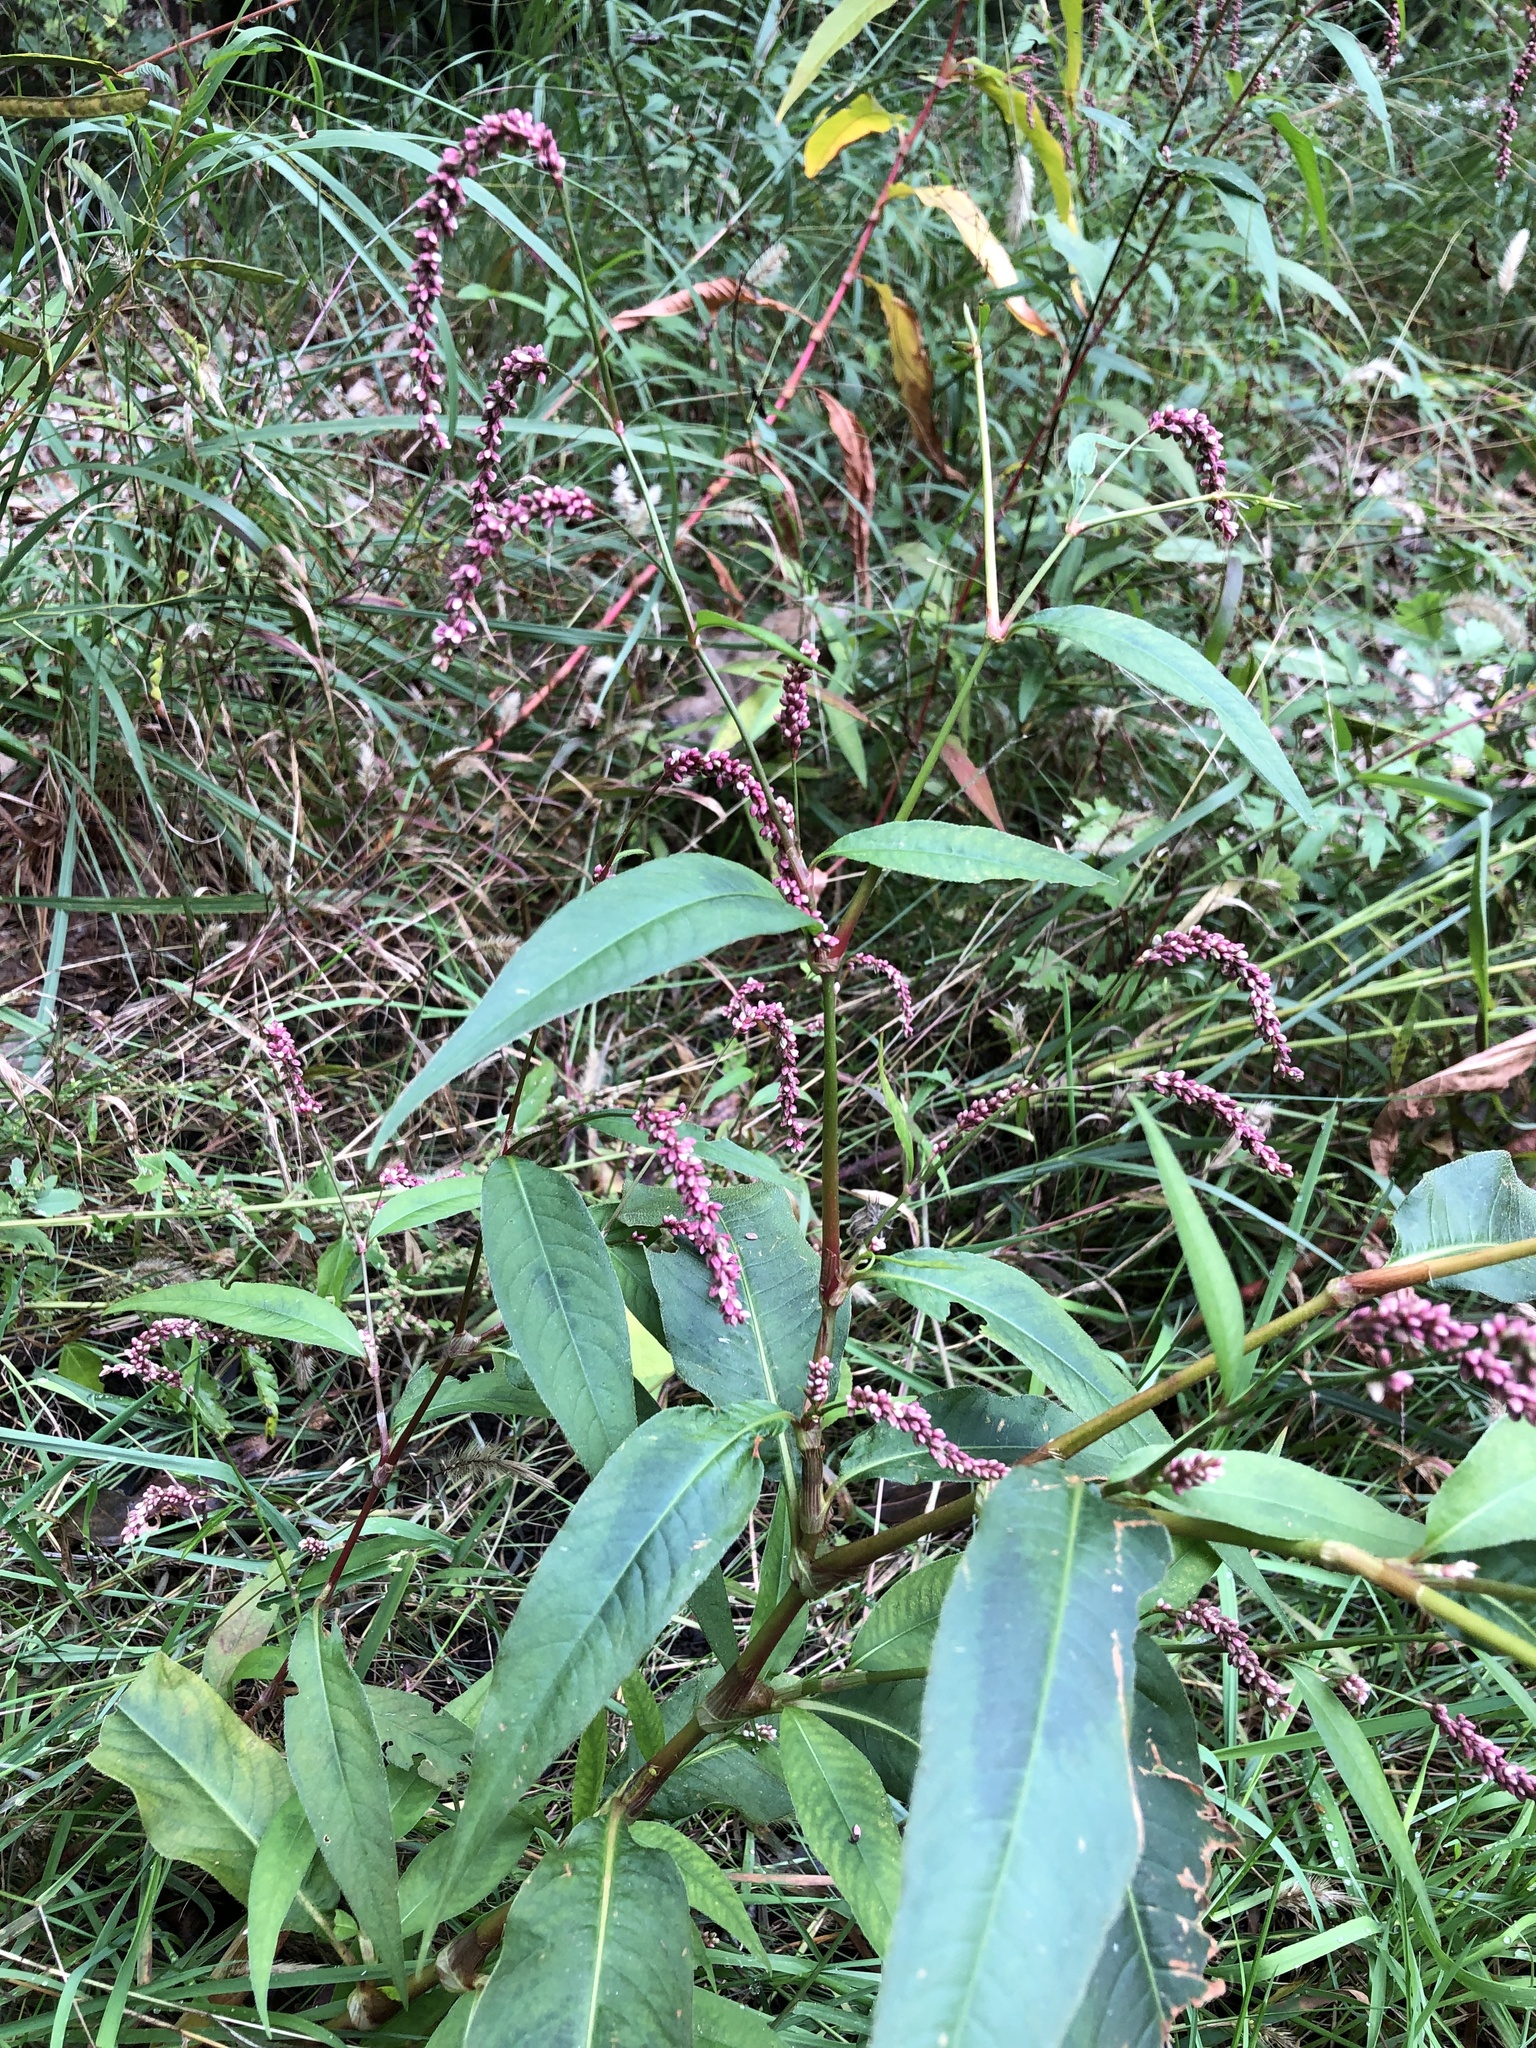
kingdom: Plantae
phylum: Tracheophyta
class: Magnoliopsida
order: Caryophyllales
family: Polygonaceae
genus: Persicaria
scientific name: Persicaria extremiorientalis
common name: Far-eastern smartweed
